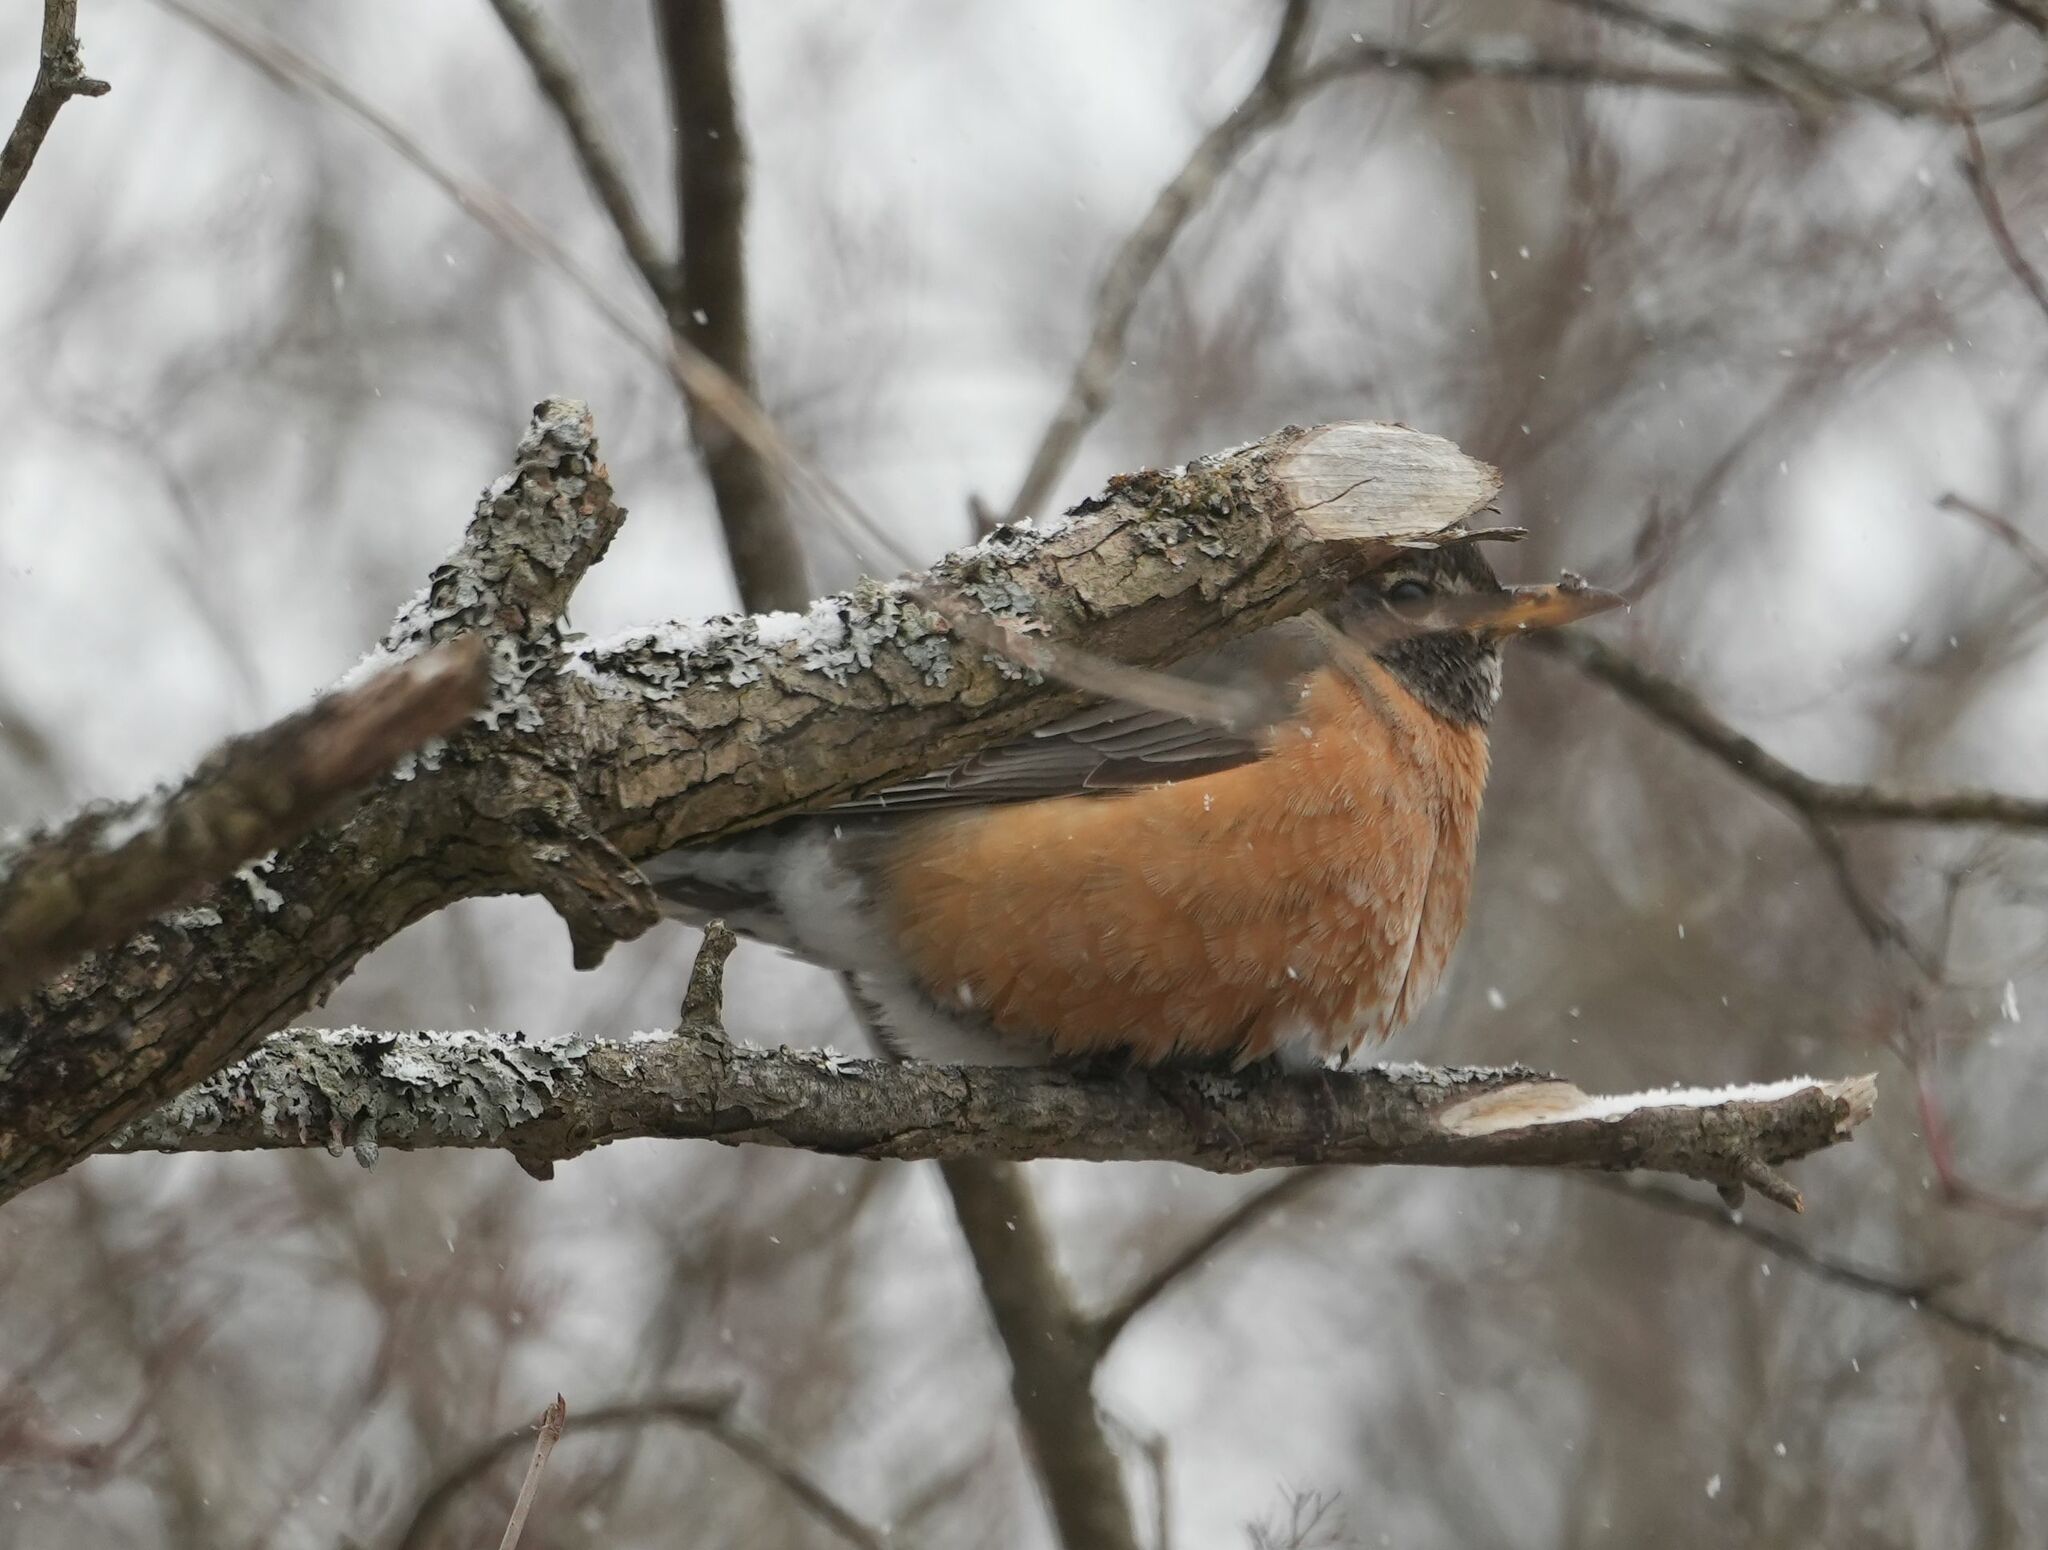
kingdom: Animalia
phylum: Chordata
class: Aves
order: Passeriformes
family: Turdidae
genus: Turdus
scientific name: Turdus migratorius
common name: American robin
